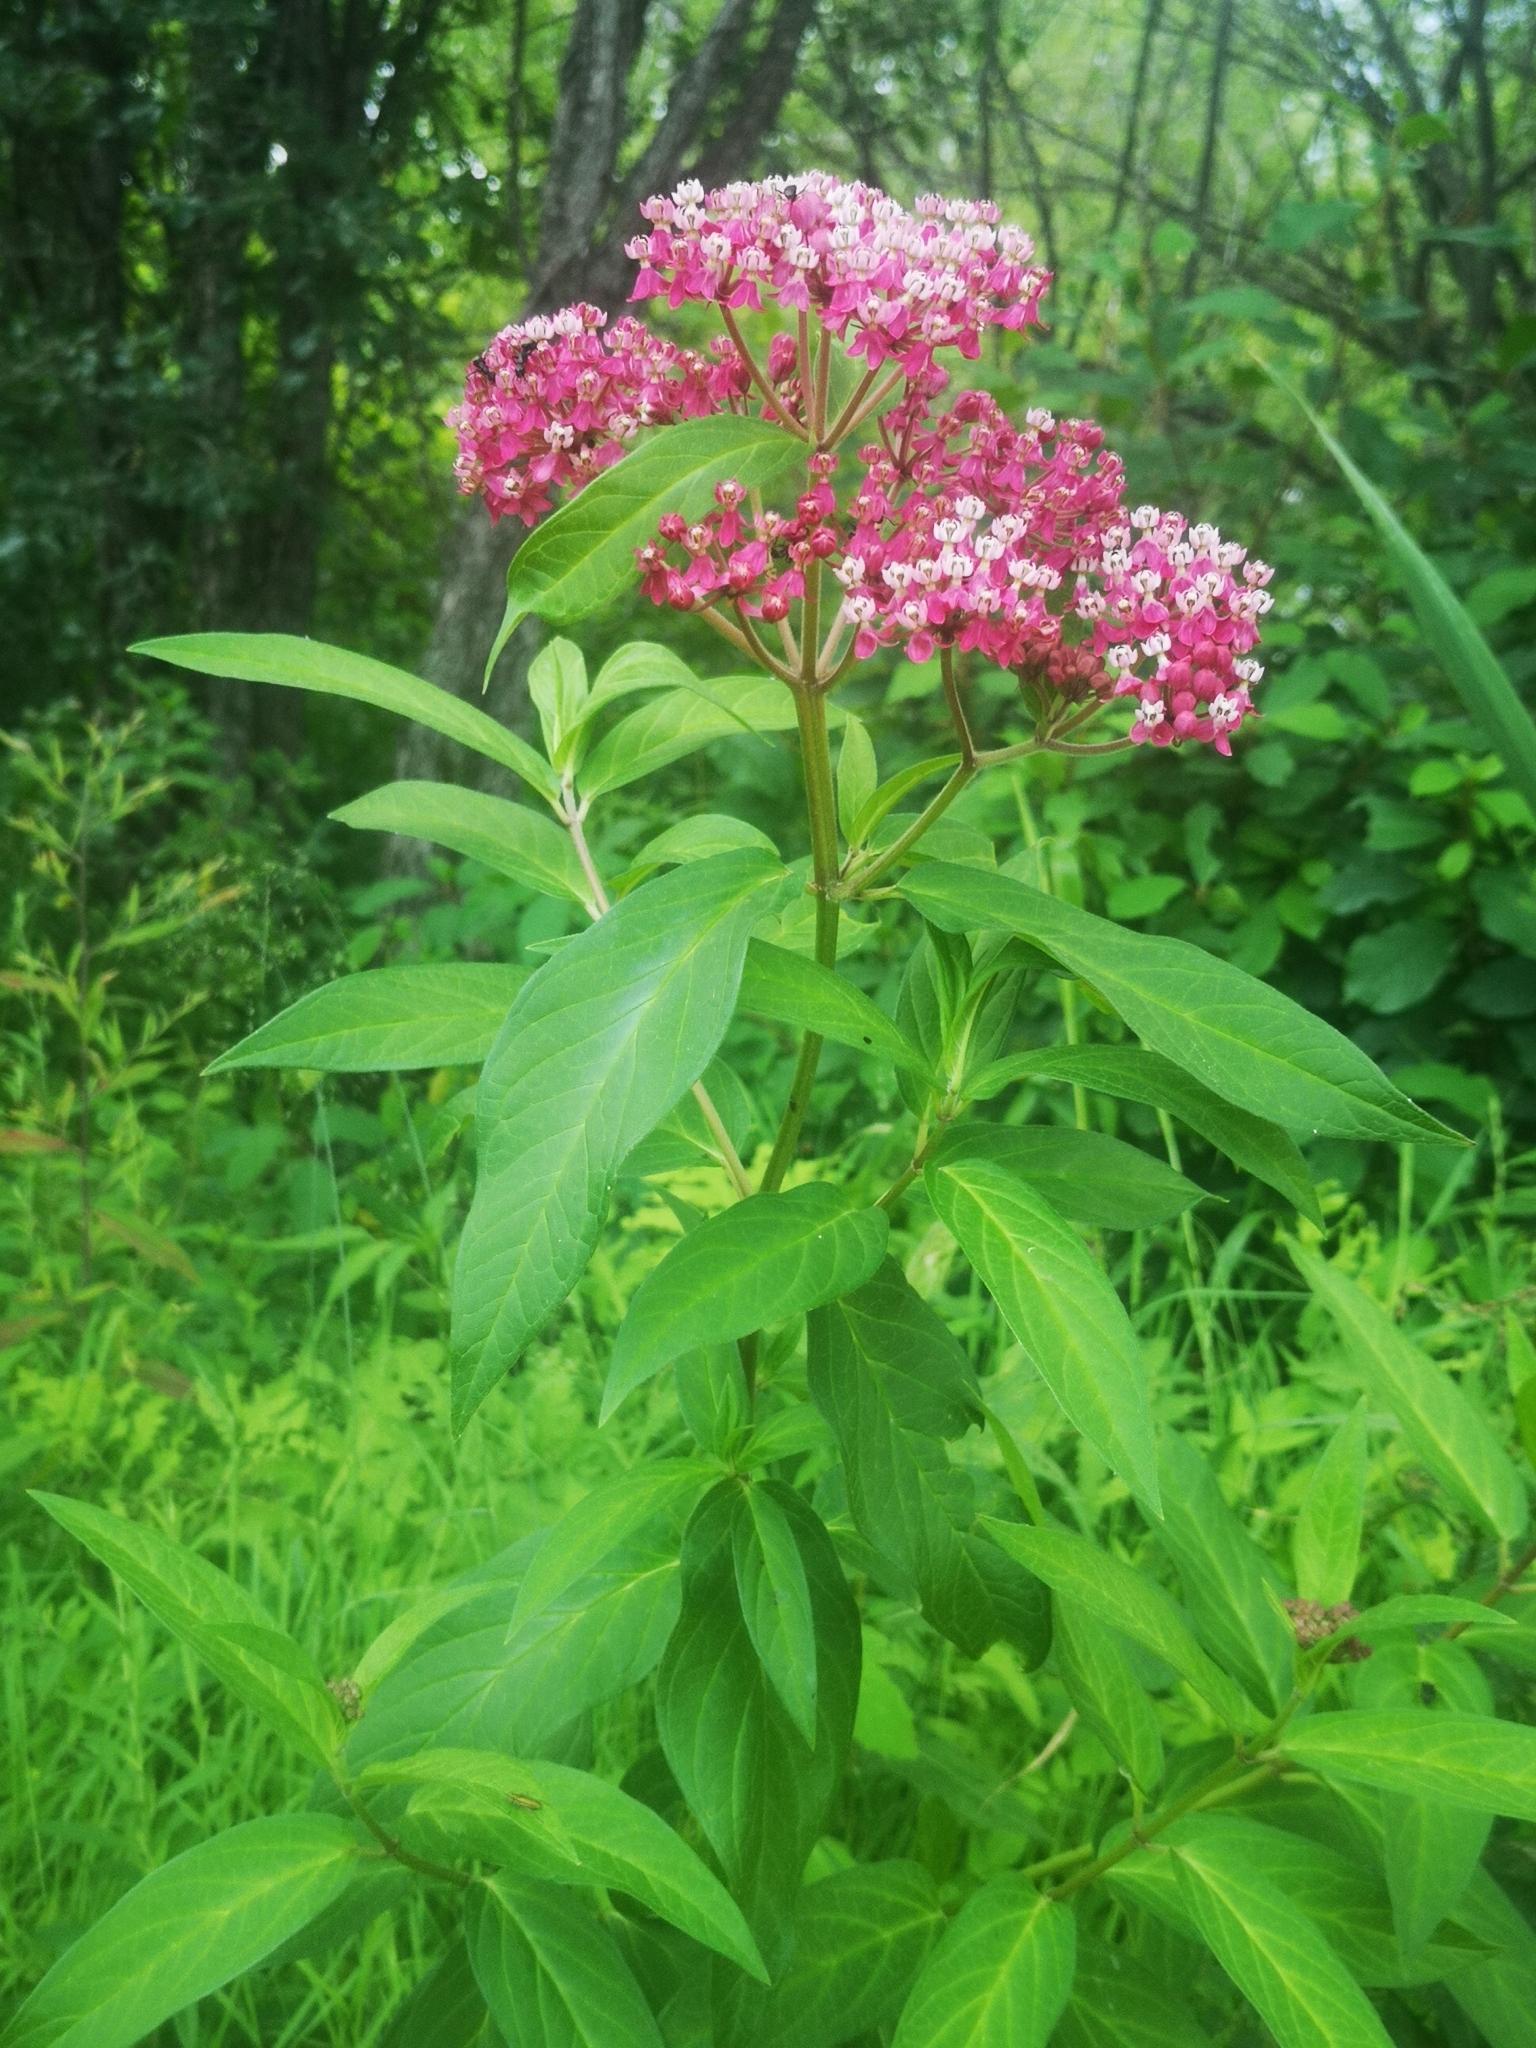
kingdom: Plantae
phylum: Tracheophyta
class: Magnoliopsida
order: Gentianales
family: Apocynaceae
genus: Asclepias
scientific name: Asclepias incarnata
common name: Swamp milkweed
